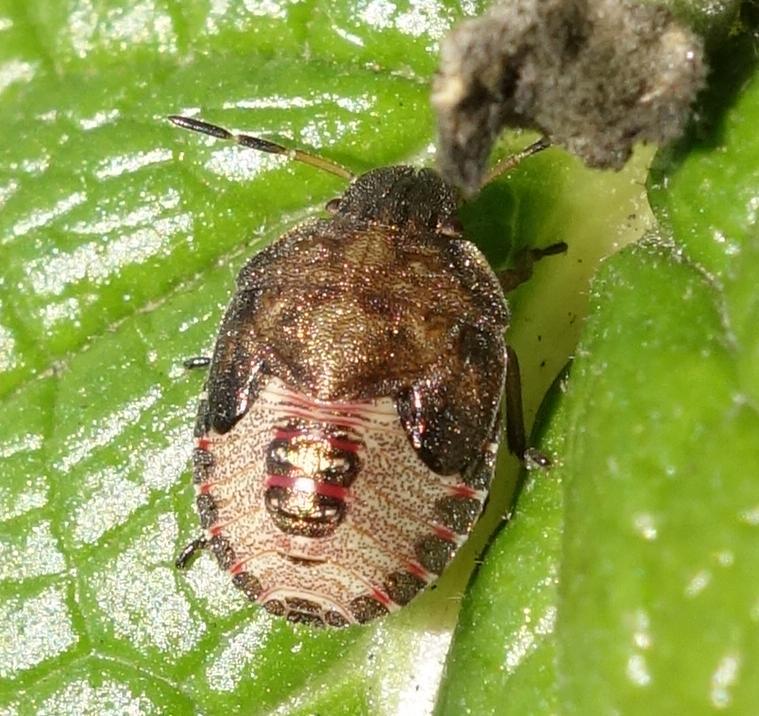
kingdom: Animalia
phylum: Arthropoda
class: Insecta
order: Hemiptera
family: Pentatomidae
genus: Holcostethus
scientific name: Holcostethus strictus
